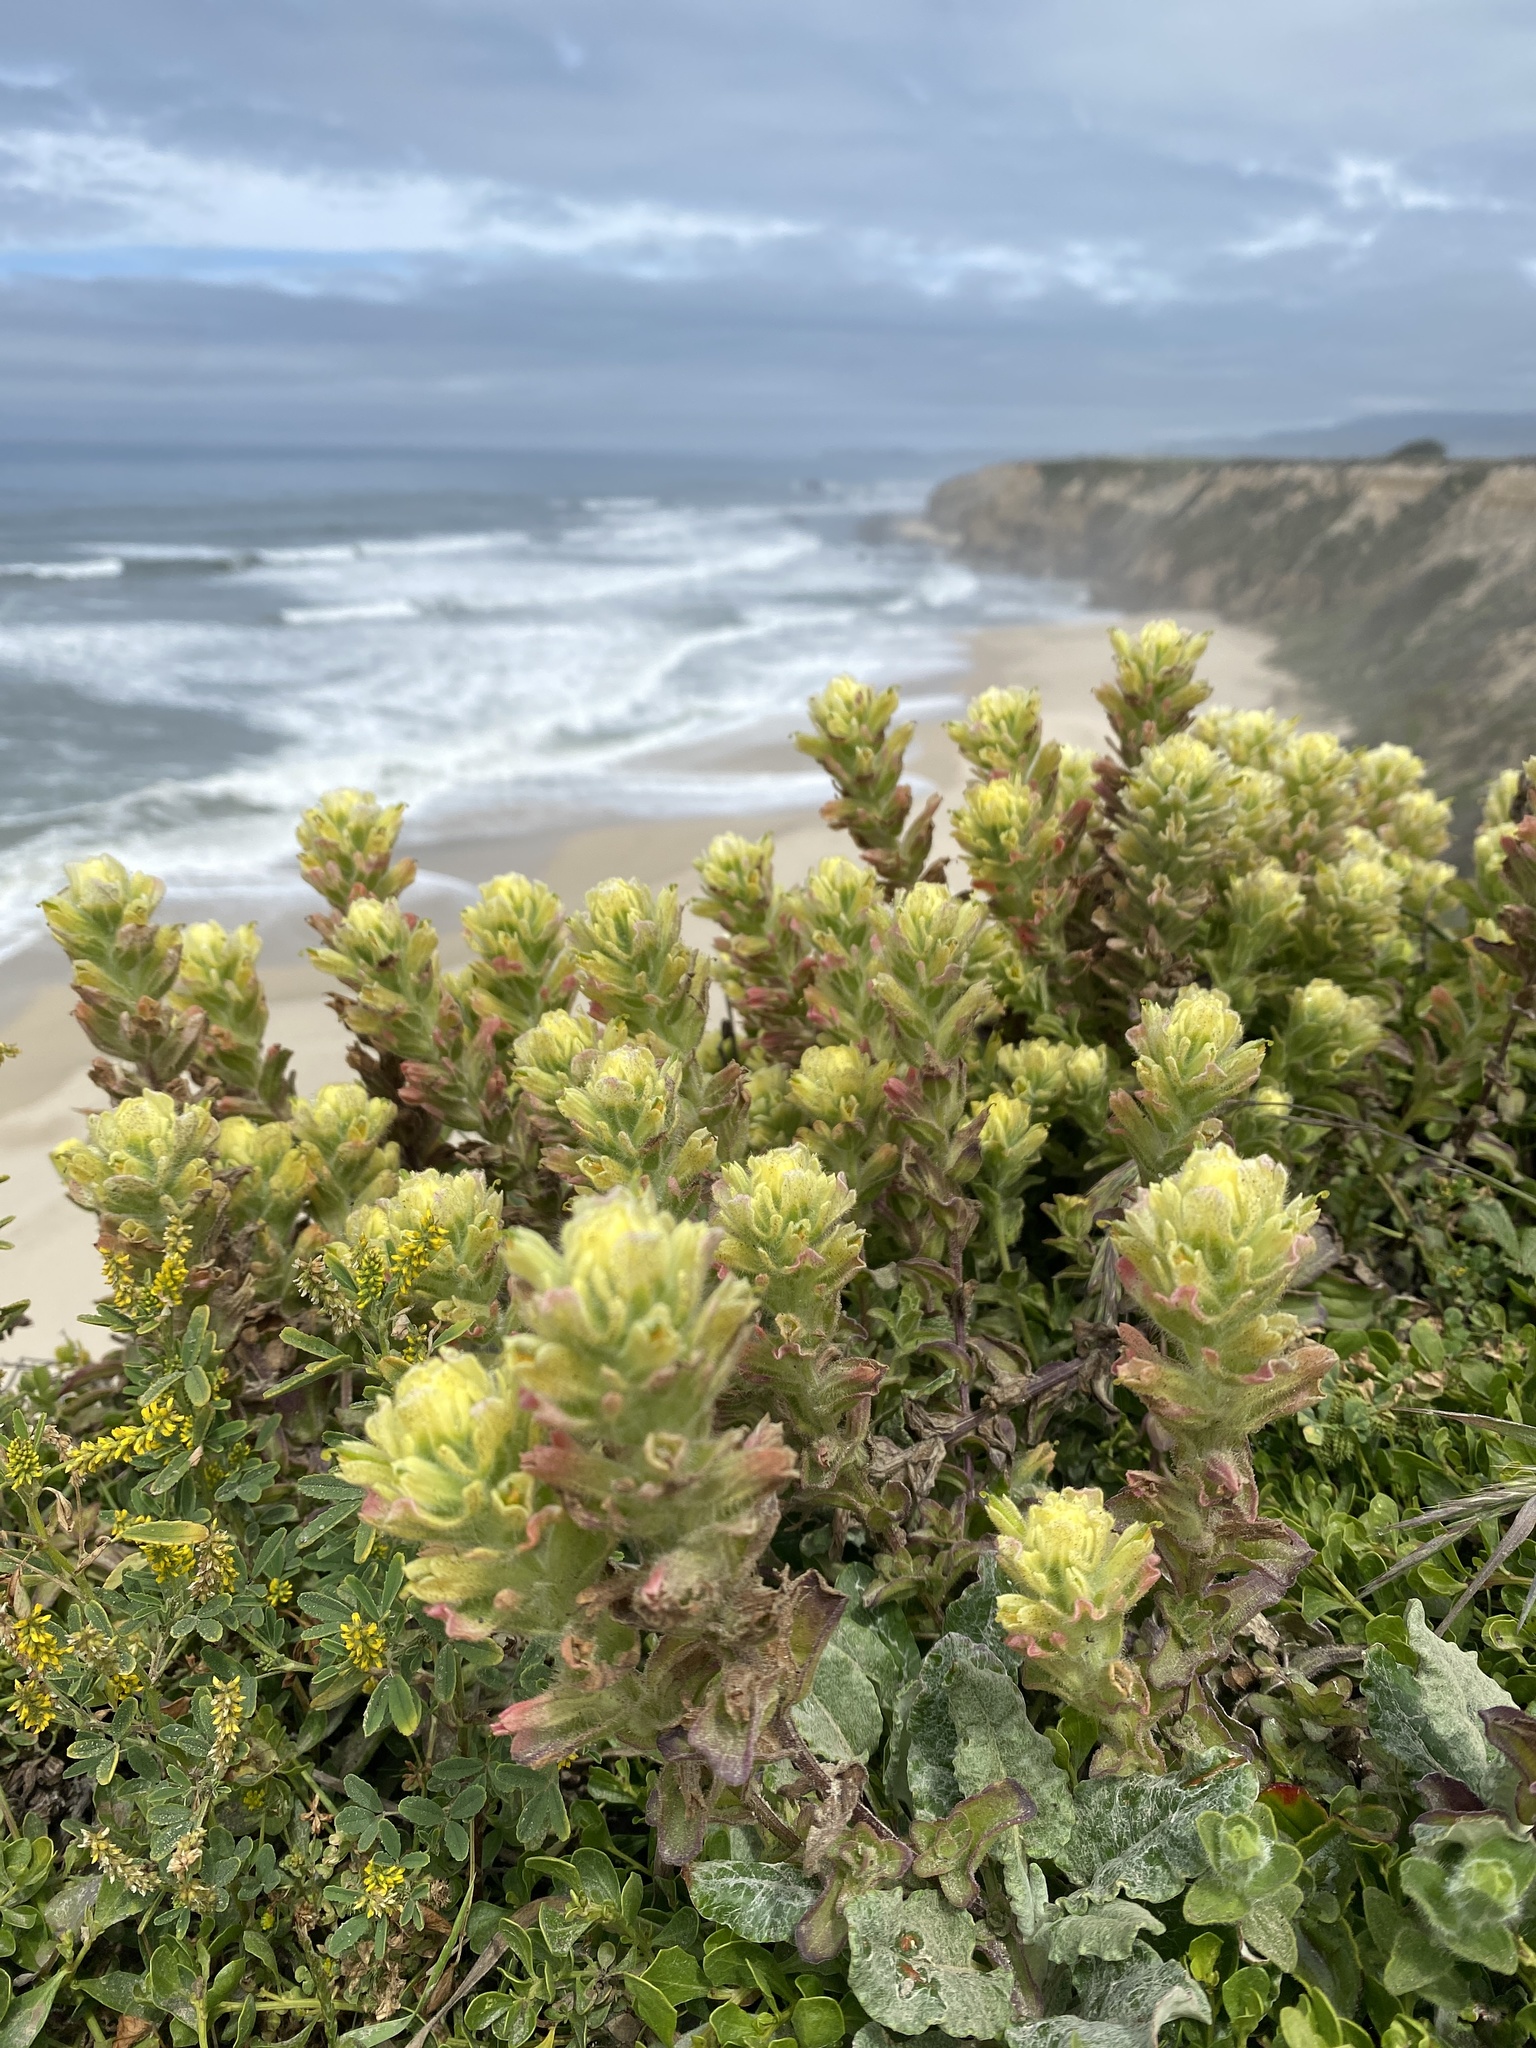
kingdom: Plantae
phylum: Tracheophyta
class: Magnoliopsida
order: Lamiales
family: Orobanchaceae
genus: Castilleja
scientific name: Castilleja wightii
